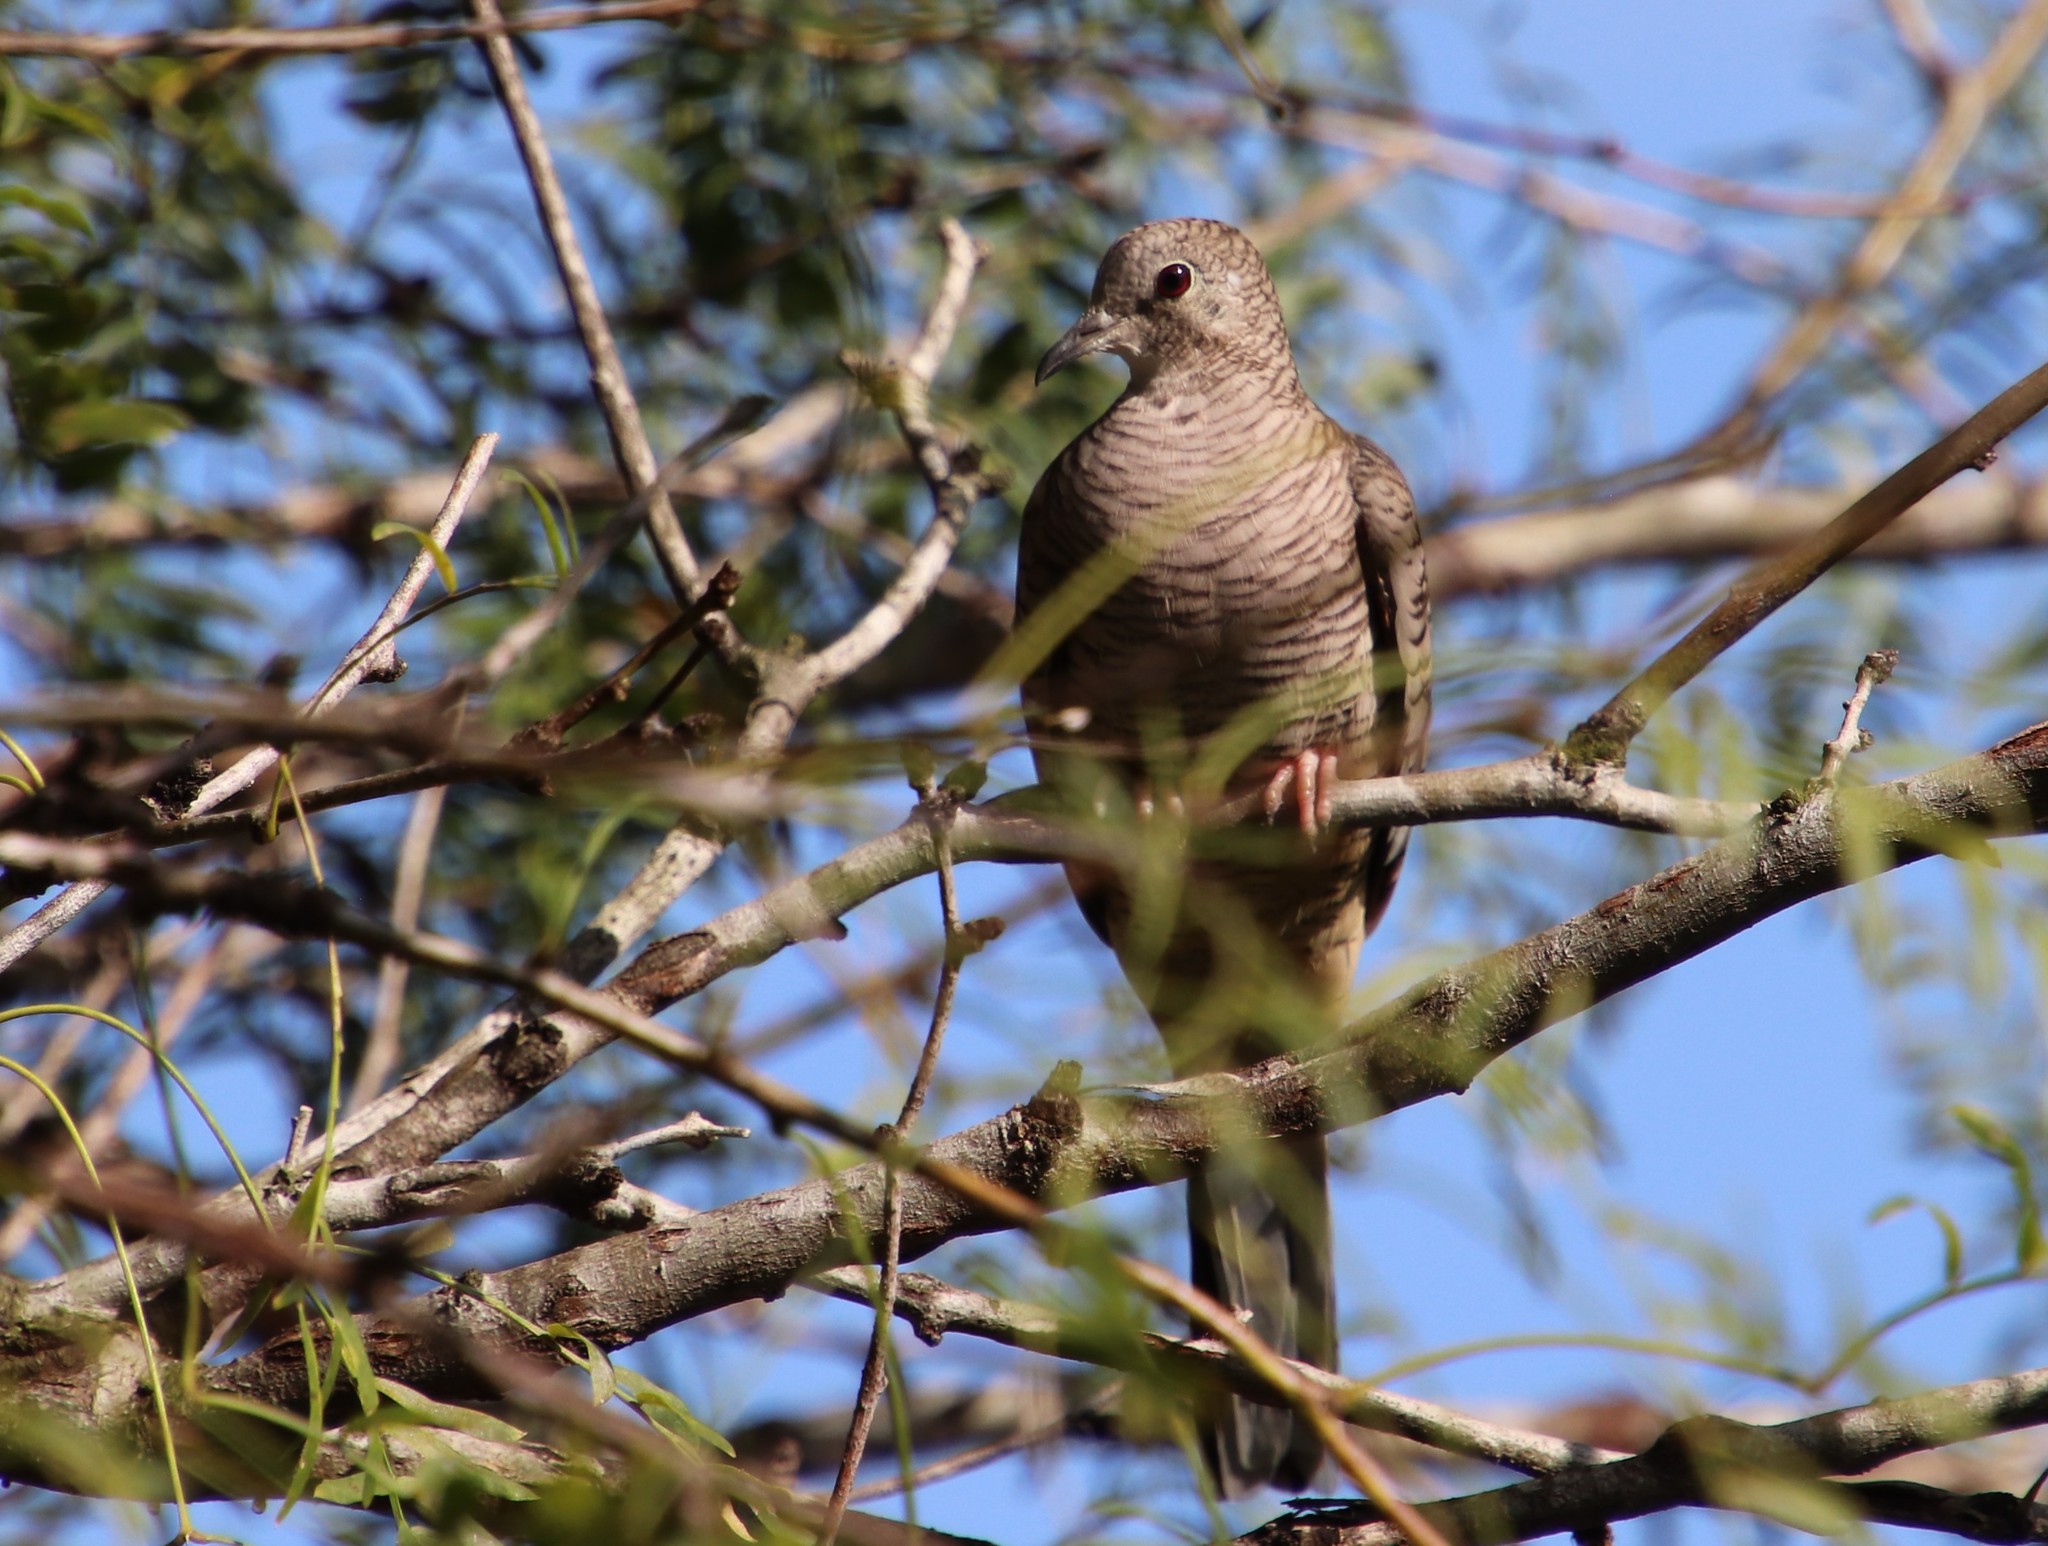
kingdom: Animalia
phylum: Chordata
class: Aves
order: Columbiformes
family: Columbidae
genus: Columbina
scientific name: Columbina inca
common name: Inca dove
